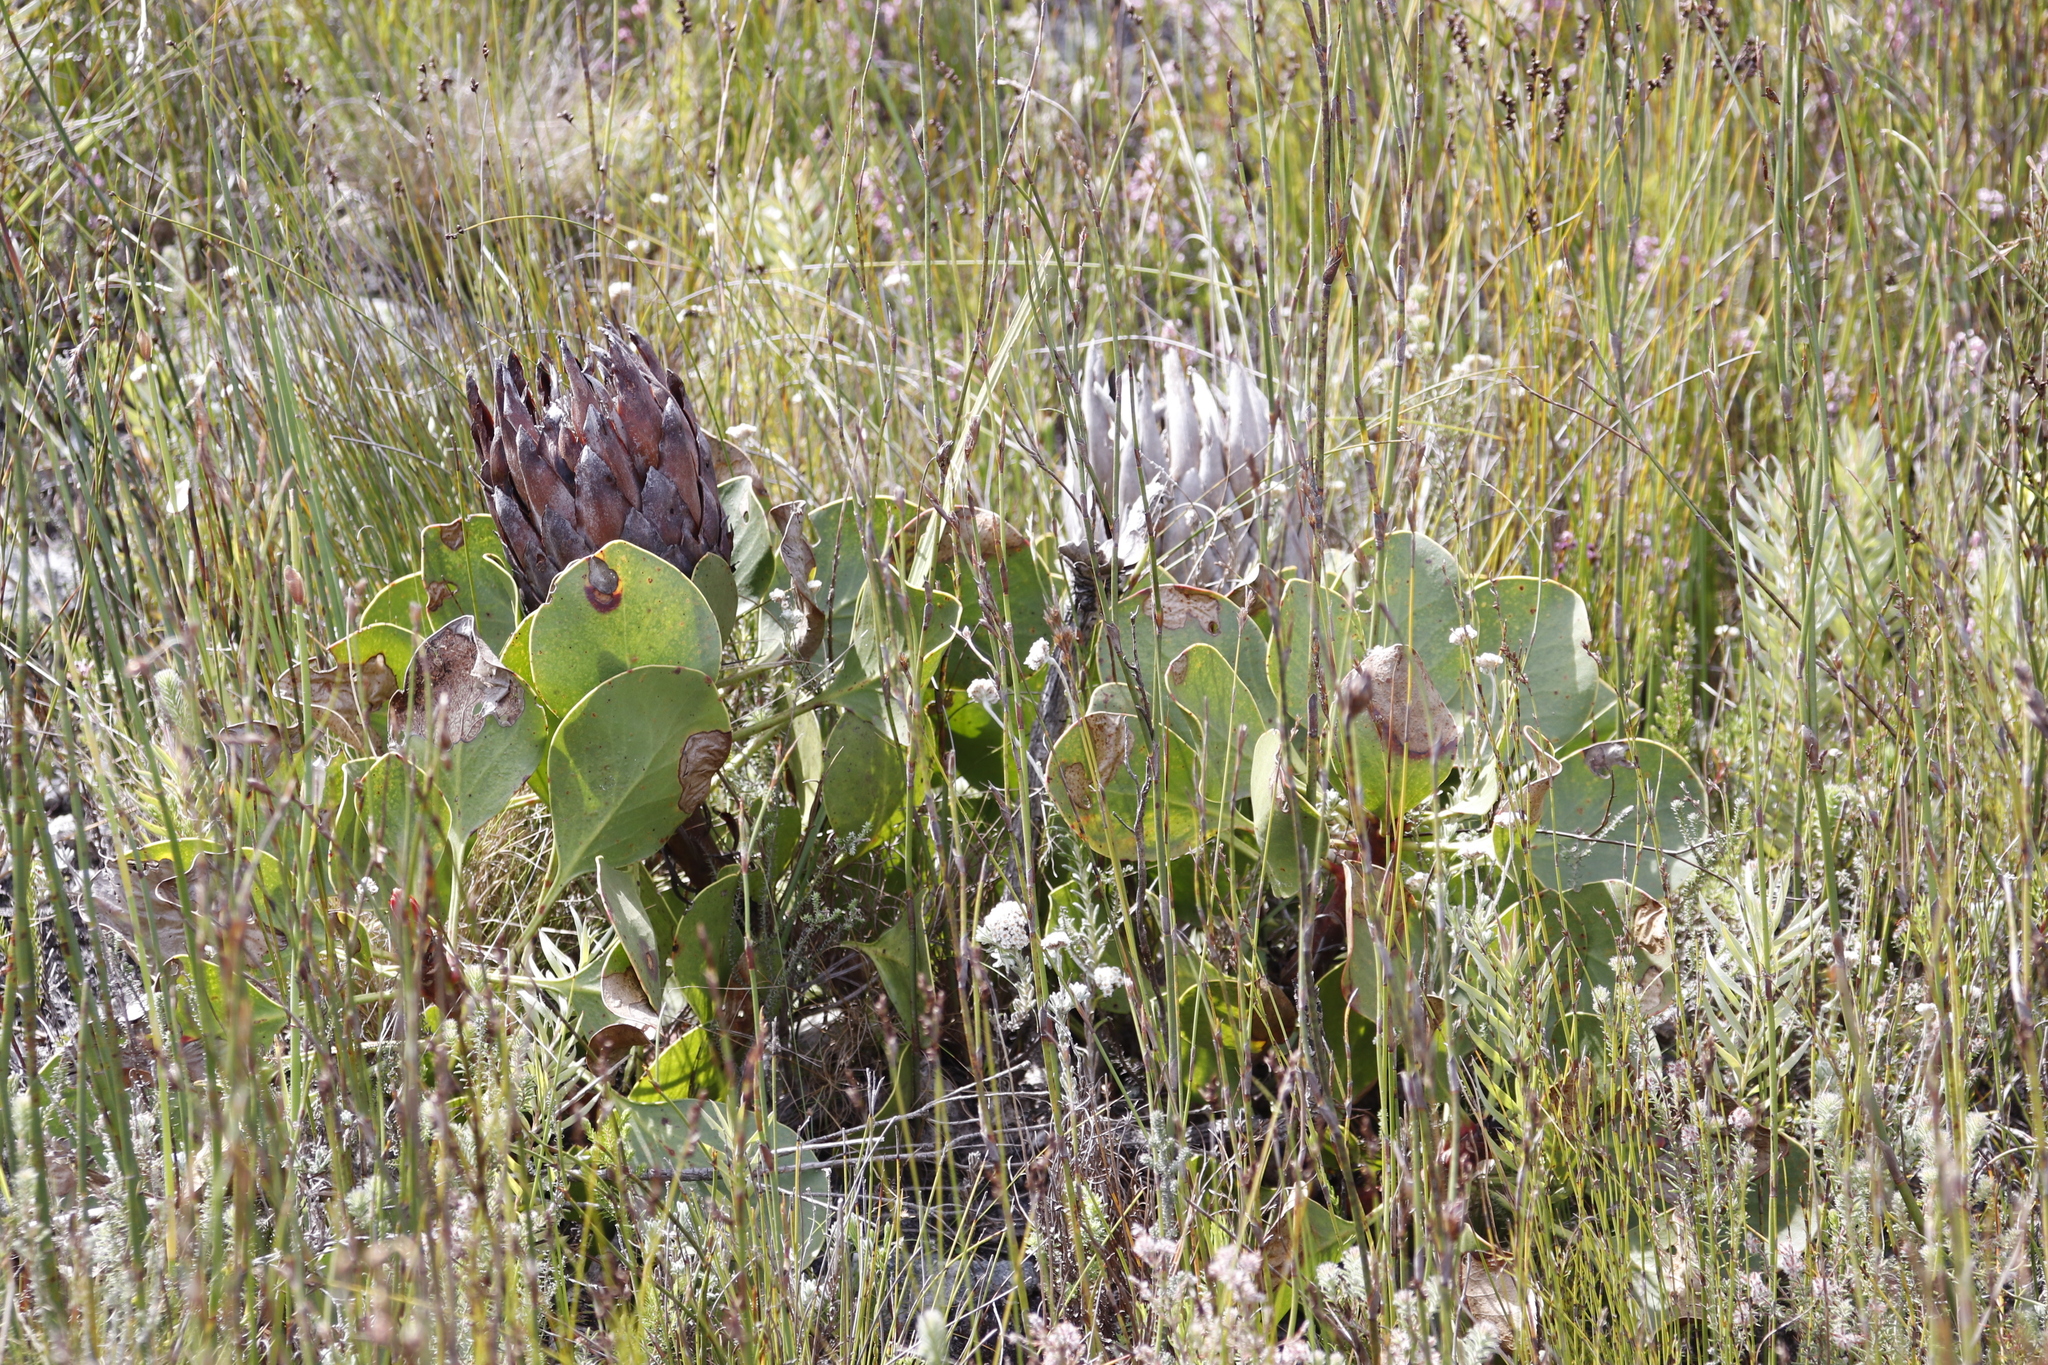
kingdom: Plantae
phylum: Tracheophyta
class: Magnoliopsida
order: Proteales
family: Proteaceae
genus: Protea
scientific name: Protea cynaroides
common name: King protea
